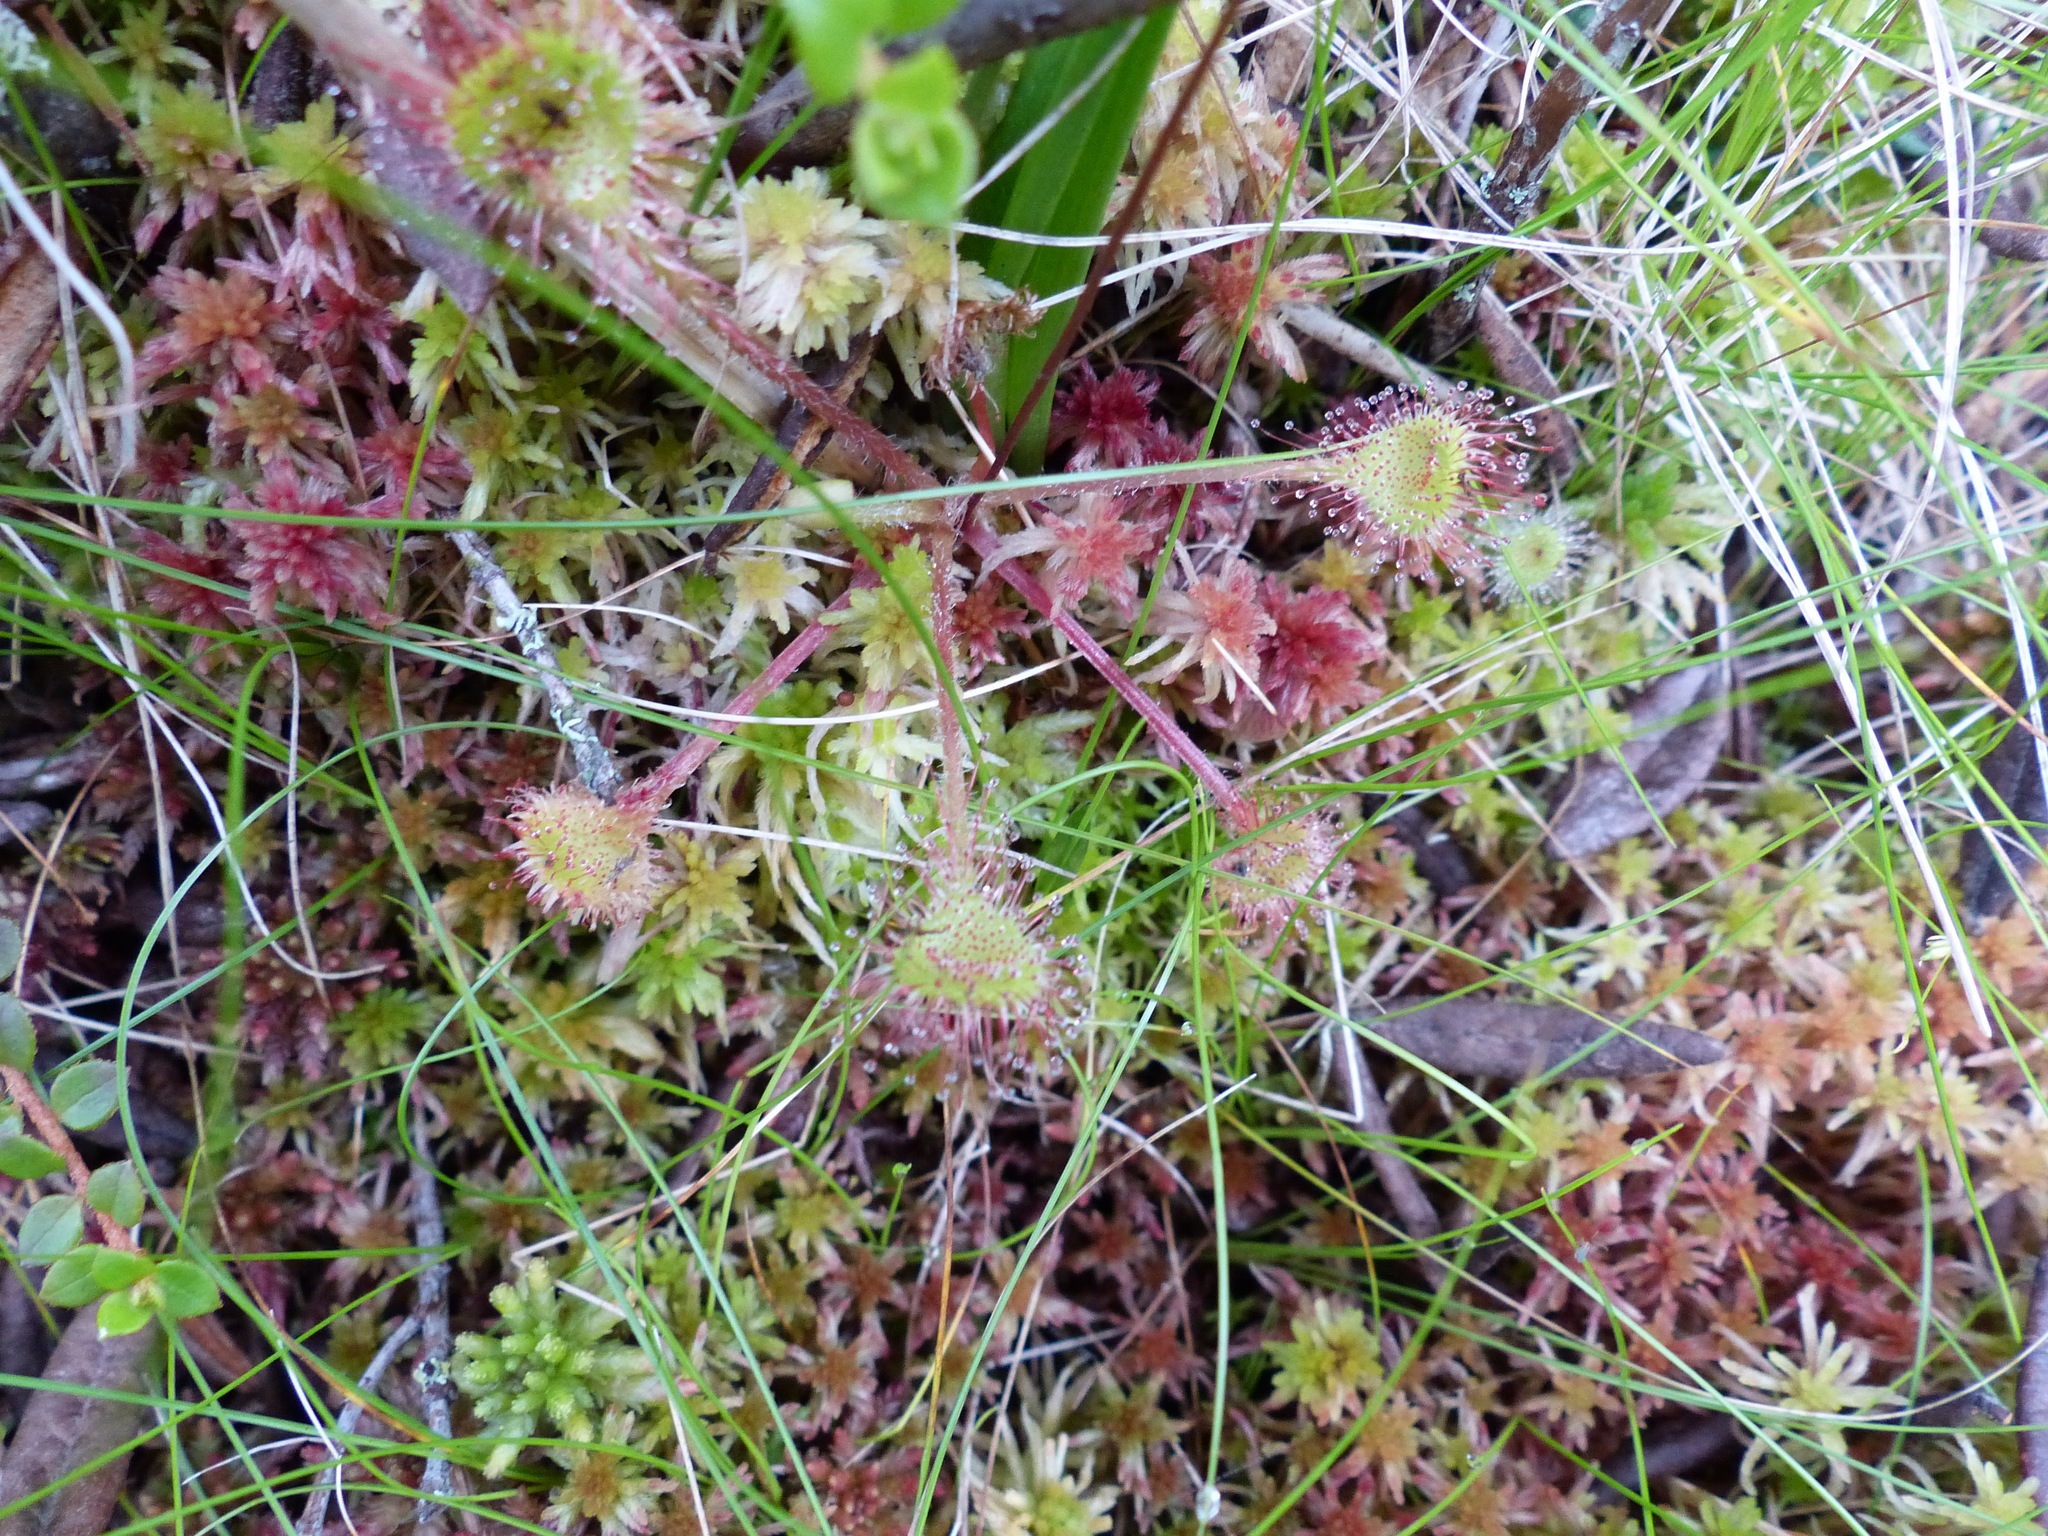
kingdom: Plantae
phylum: Tracheophyta
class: Magnoliopsida
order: Caryophyllales
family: Droseraceae
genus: Drosera
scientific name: Drosera rotundifolia
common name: Round-leaved sundew
